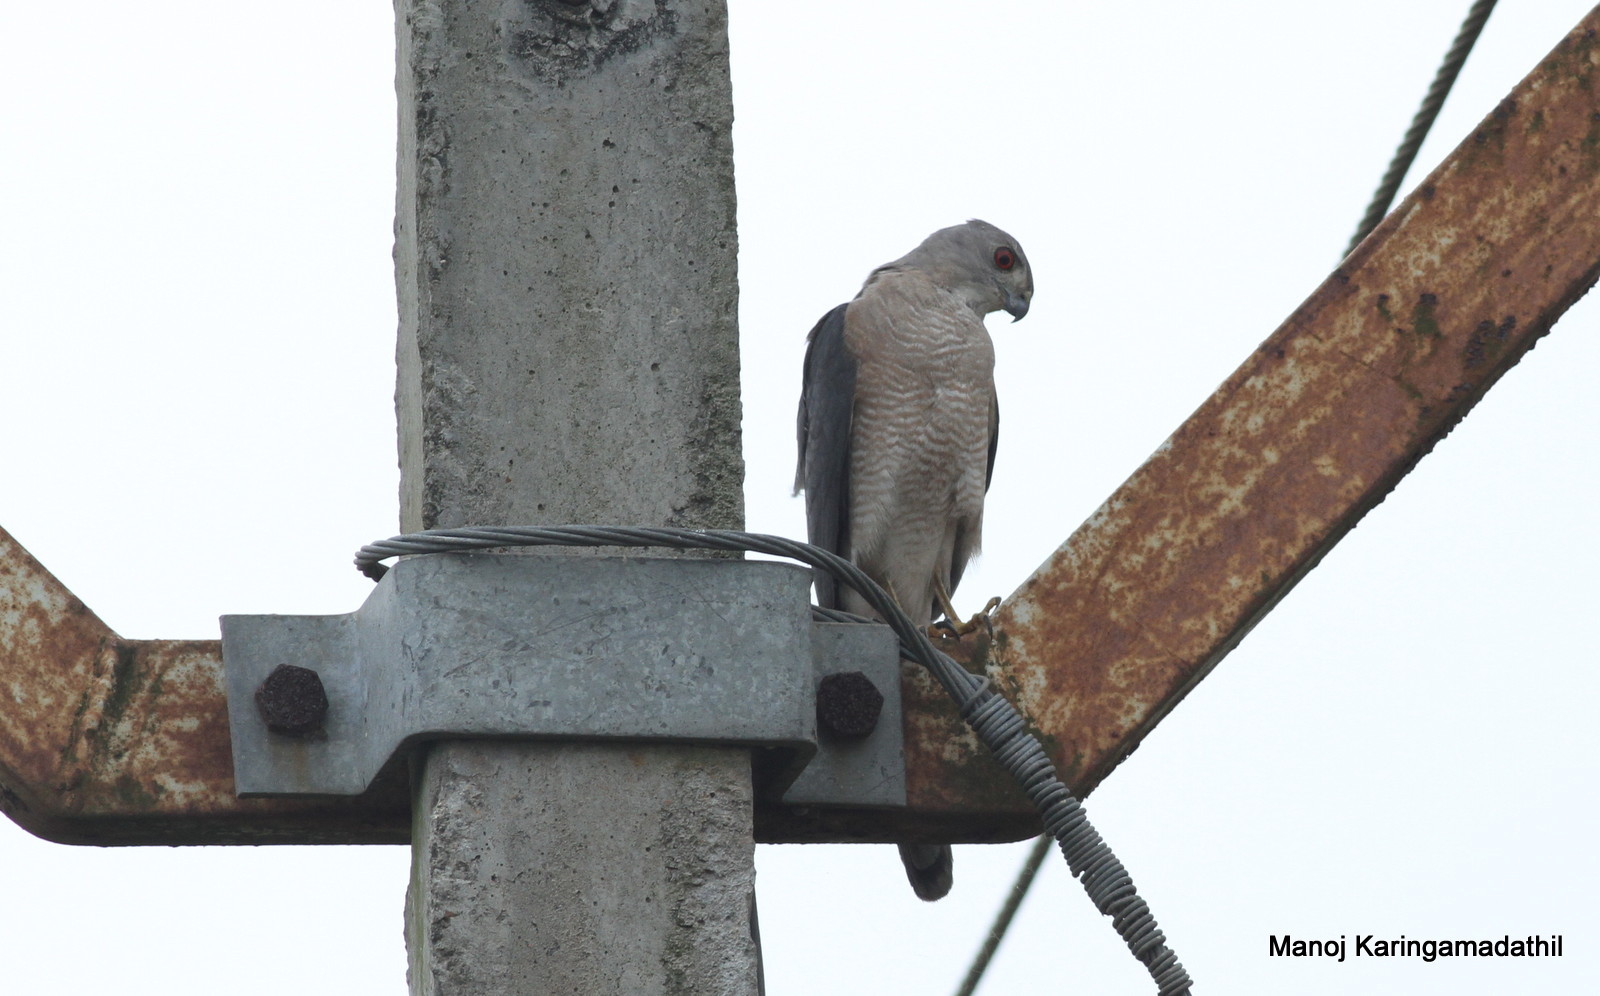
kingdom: Animalia
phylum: Chordata
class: Aves
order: Accipitriformes
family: Accipitridae
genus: Accipiter
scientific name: Accipiter badius
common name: Shikra
